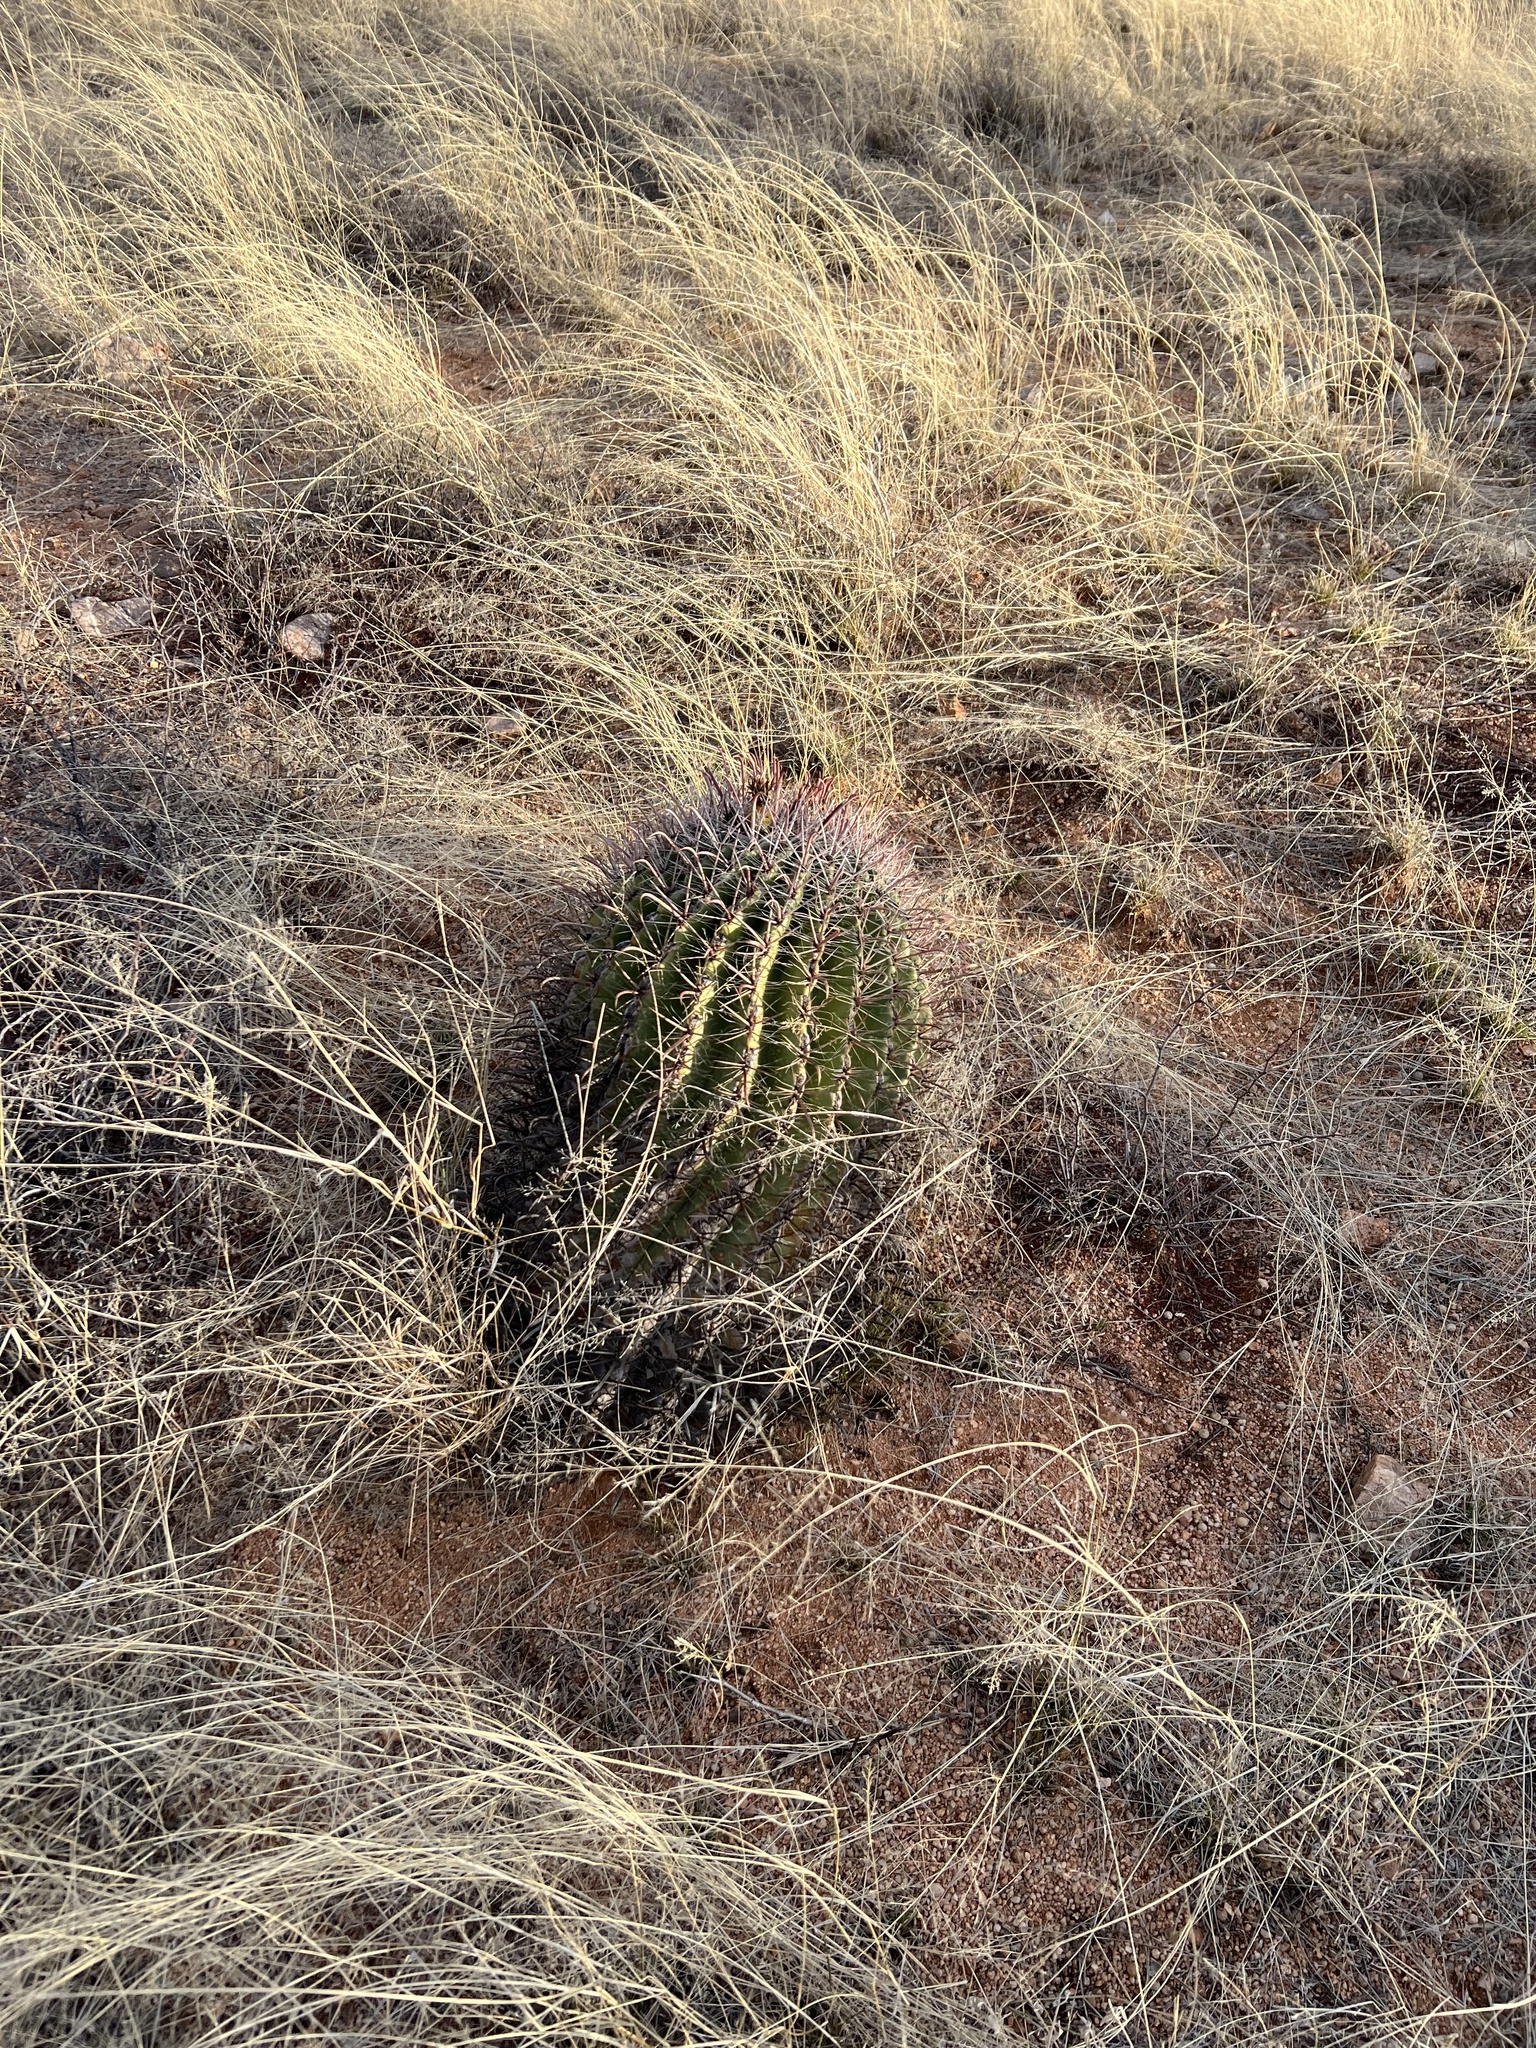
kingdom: Plantae
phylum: Tracheophyta
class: Magnoliopsida
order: Caryophyllales
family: Cactaceae
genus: Ferocactus
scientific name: Ferocactus wislizeni
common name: Candy barrel cactus
